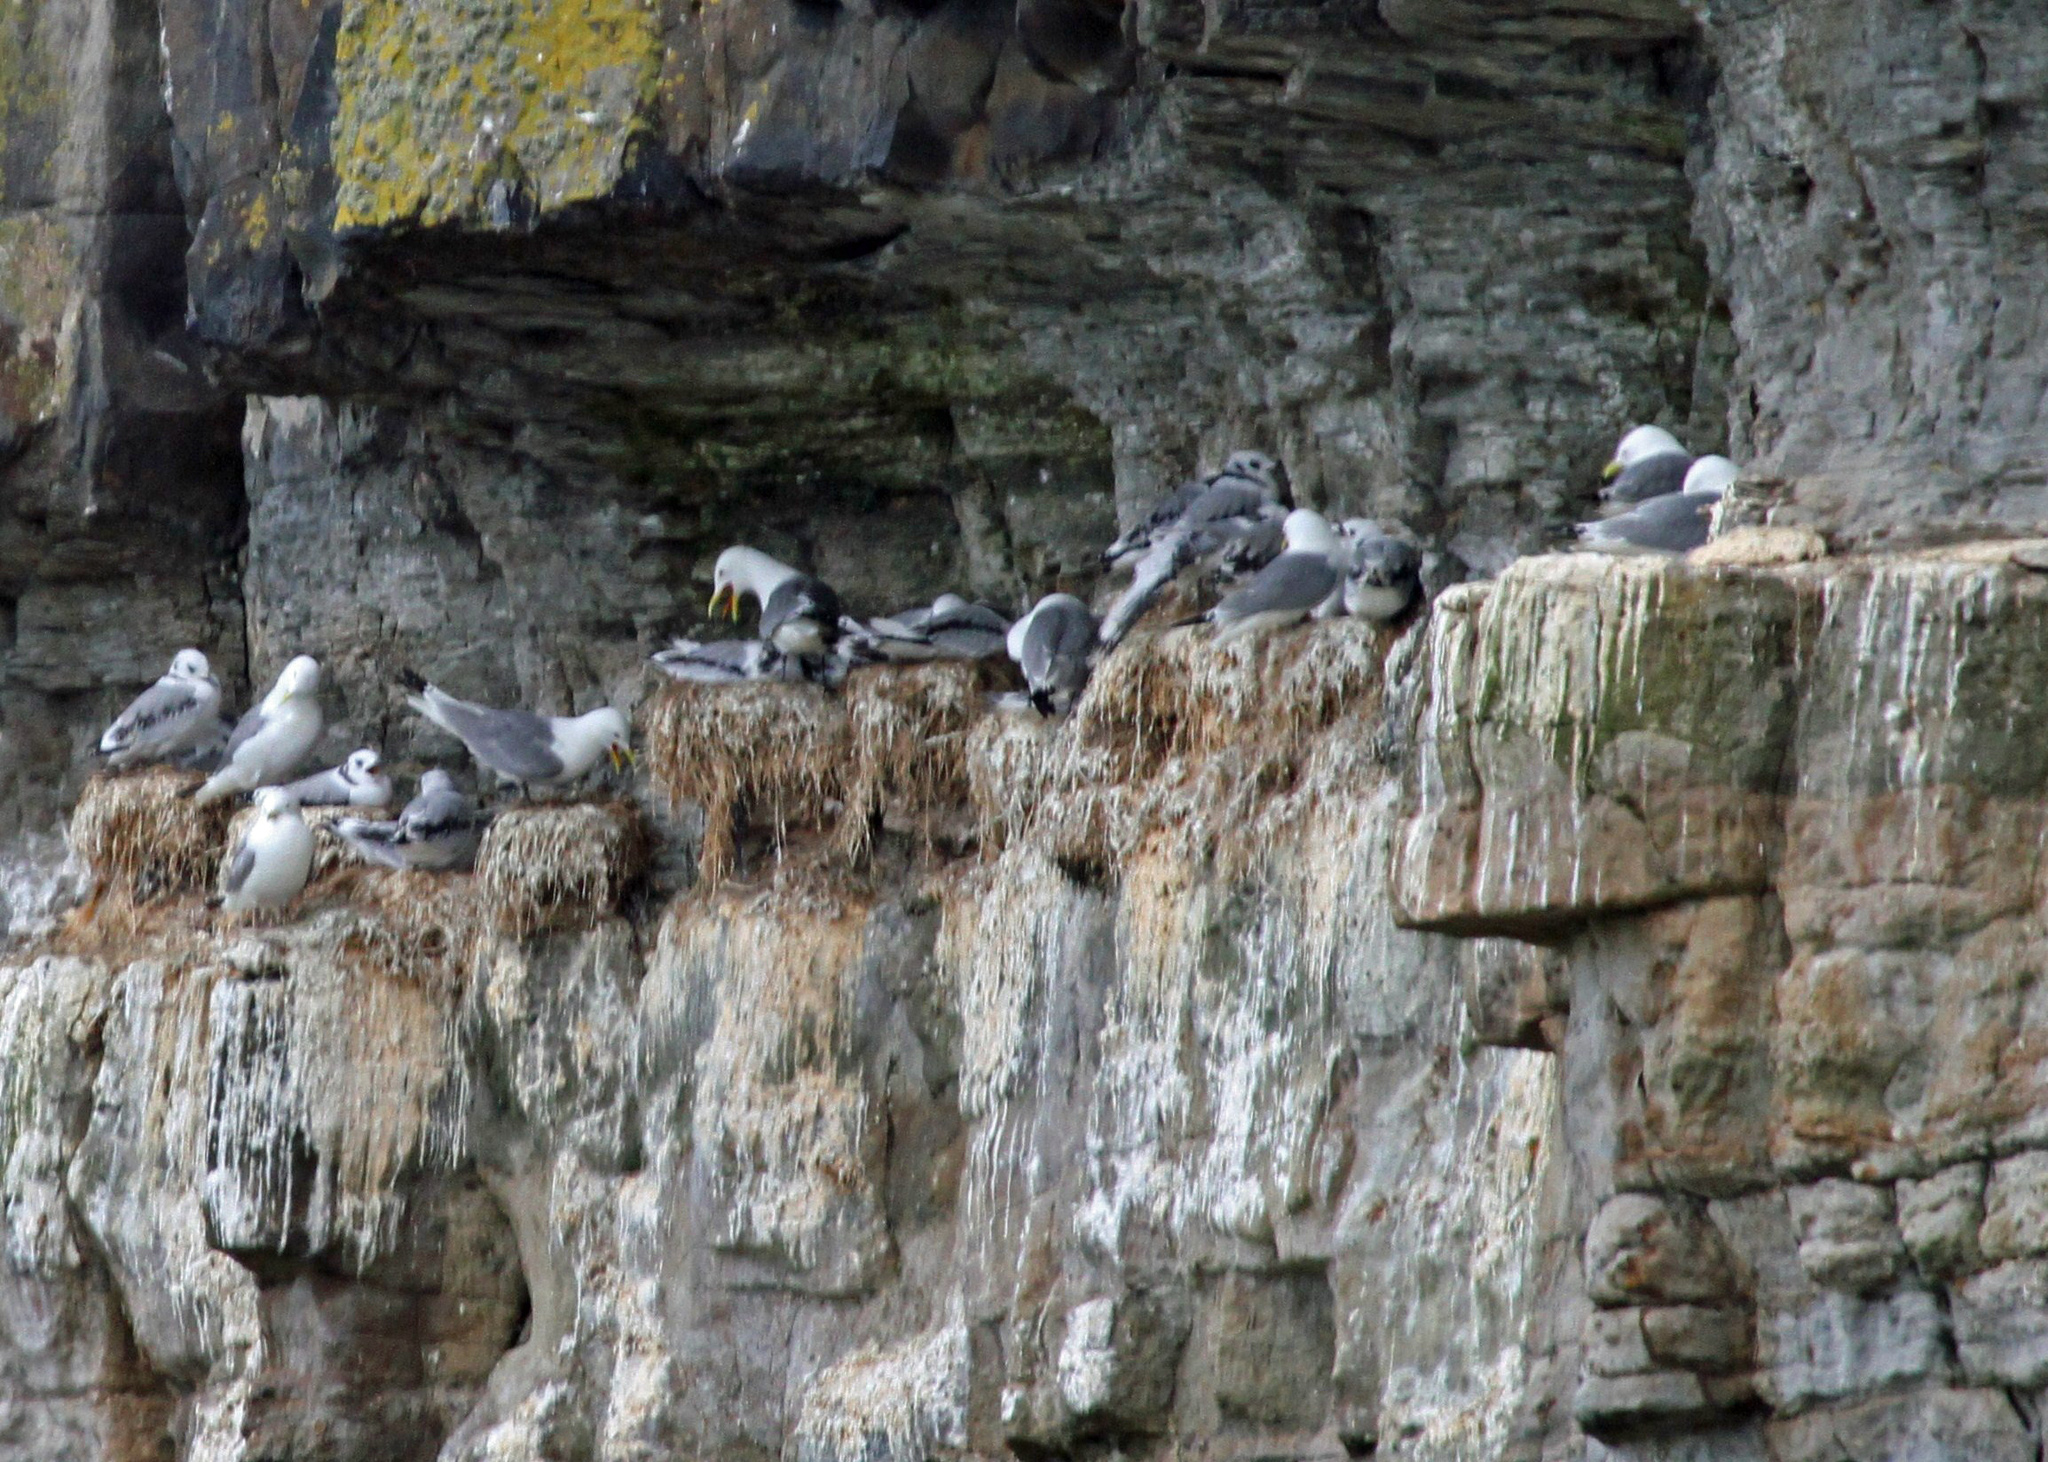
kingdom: Animalia
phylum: Chordata
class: Aves
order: Charadriiformes
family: Laridae
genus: Rissa
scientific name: Rissa tridactyla
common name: Black-legged kittiwake
